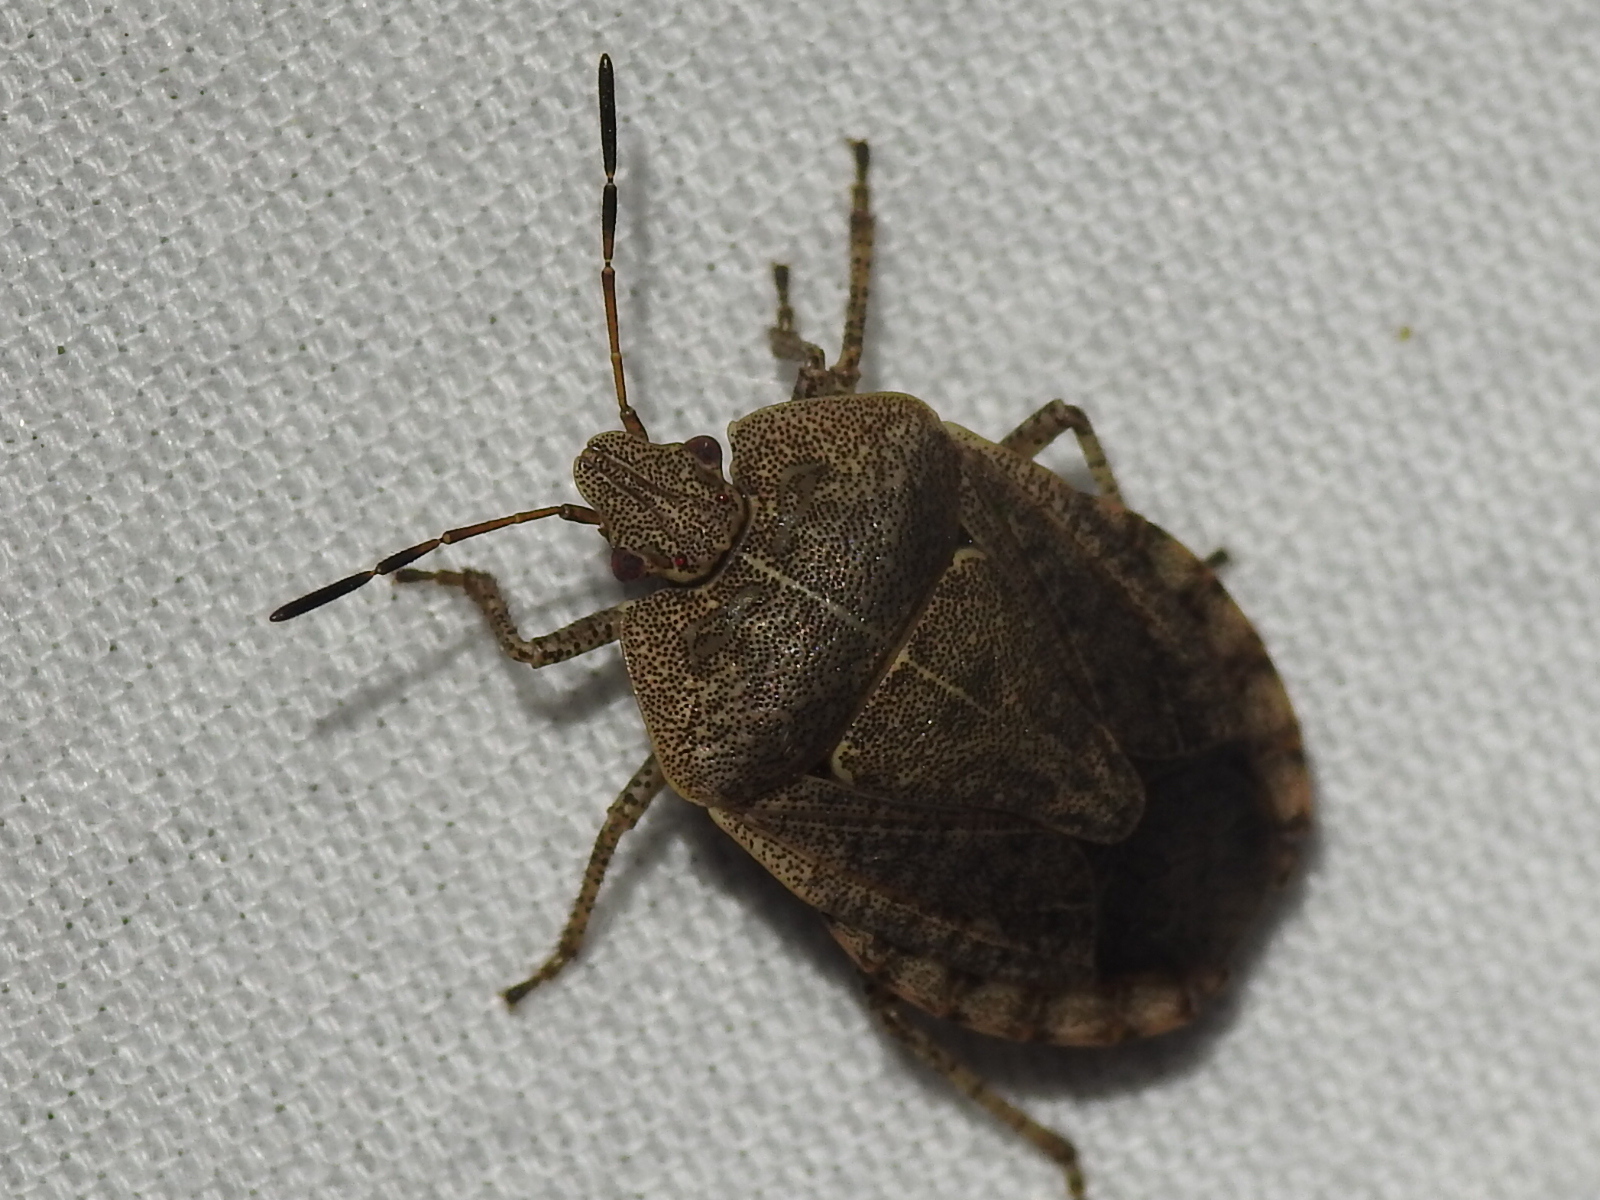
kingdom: Animalia
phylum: Arthropoda
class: Insecta
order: Hemiptera
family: Pentatomidae
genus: Menecles
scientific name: Menecles insertus
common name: Elf shoe stink bug
